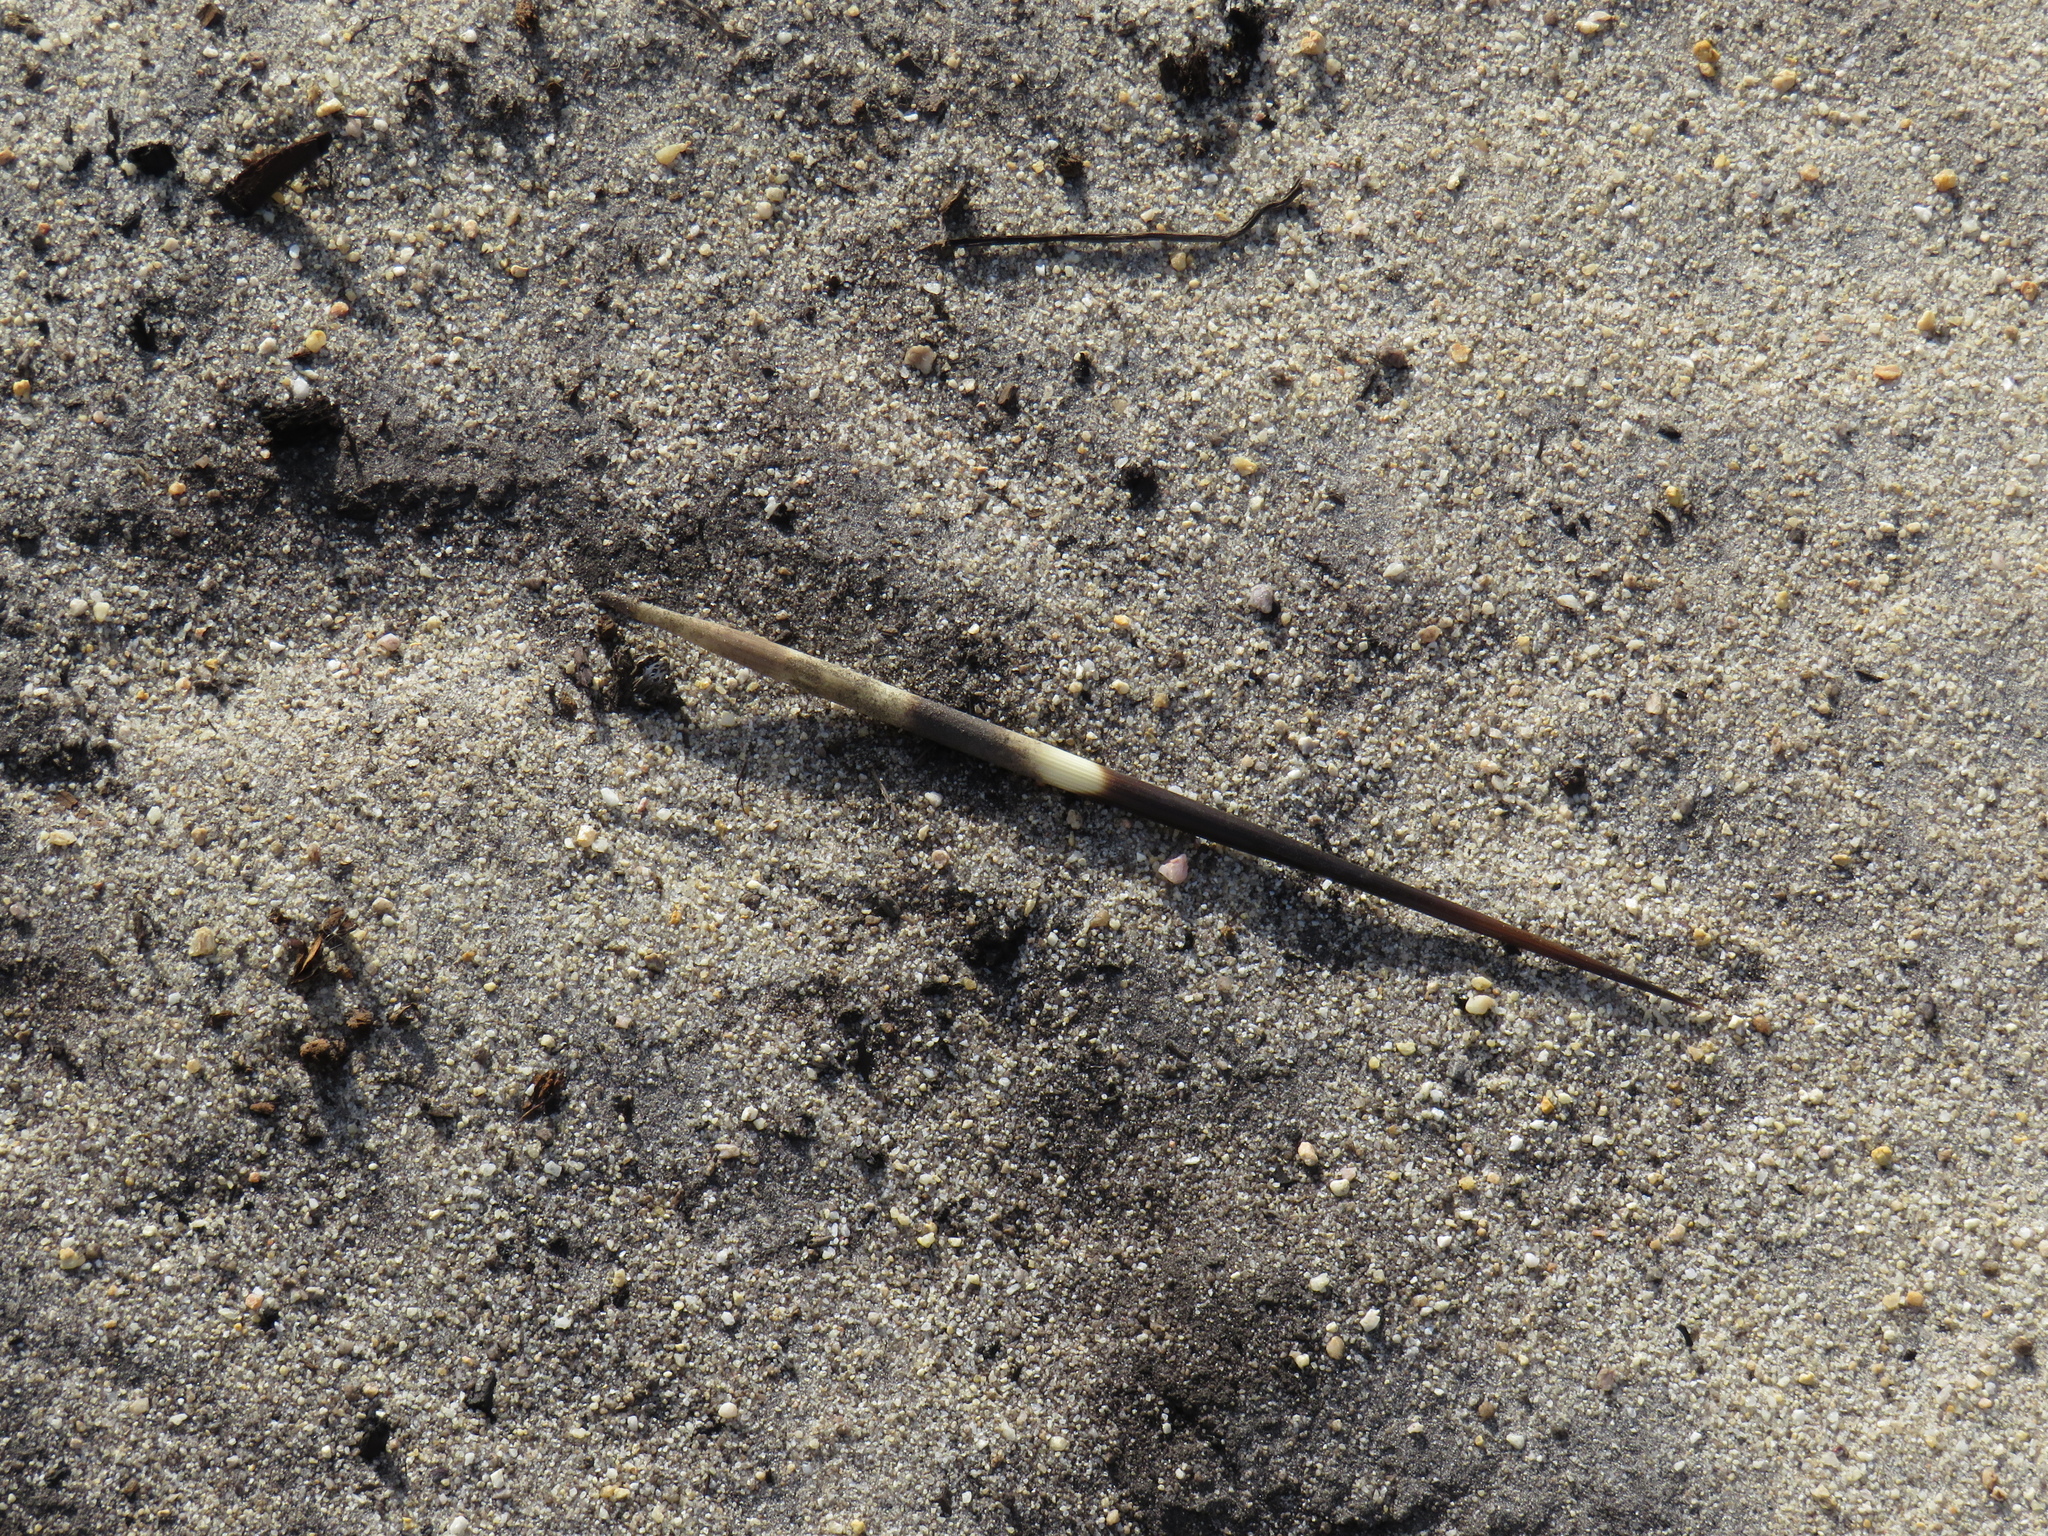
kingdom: Animalia
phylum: Chordata
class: Mammalia
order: Rodentia
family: Hystricidae
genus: Hystrix
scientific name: Hystrix africaeaustralis
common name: Cape porcupine
